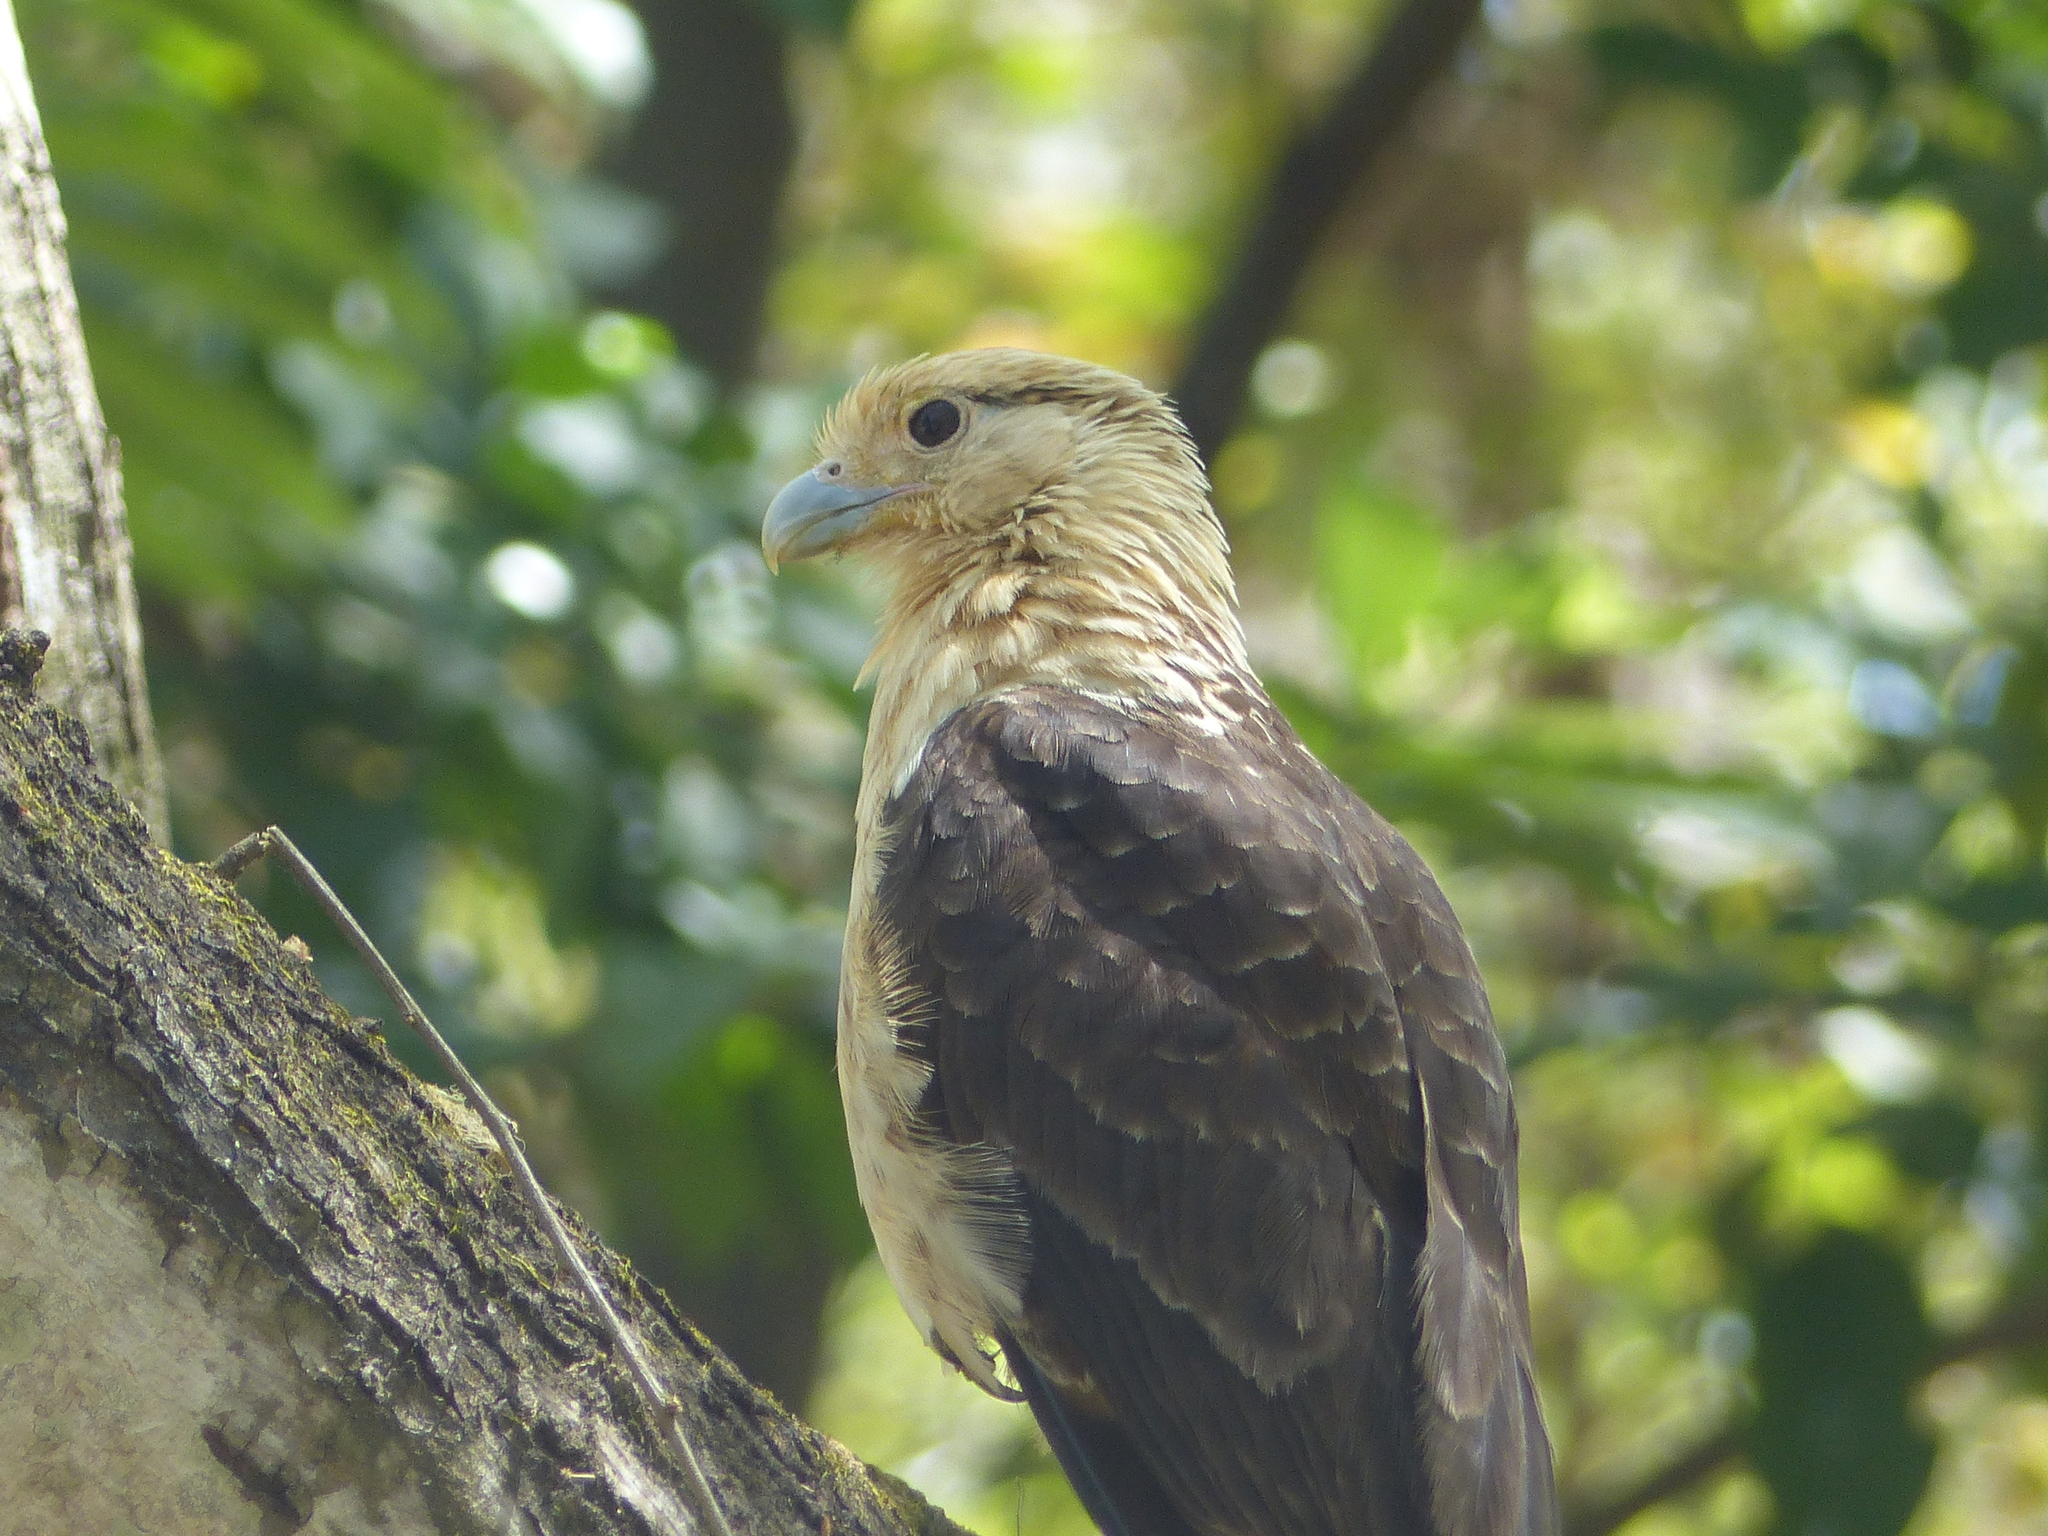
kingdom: Animalia
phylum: Chordata
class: Aves
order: Falconiformes
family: Falconidae
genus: Daptrius
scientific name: Daptrius
